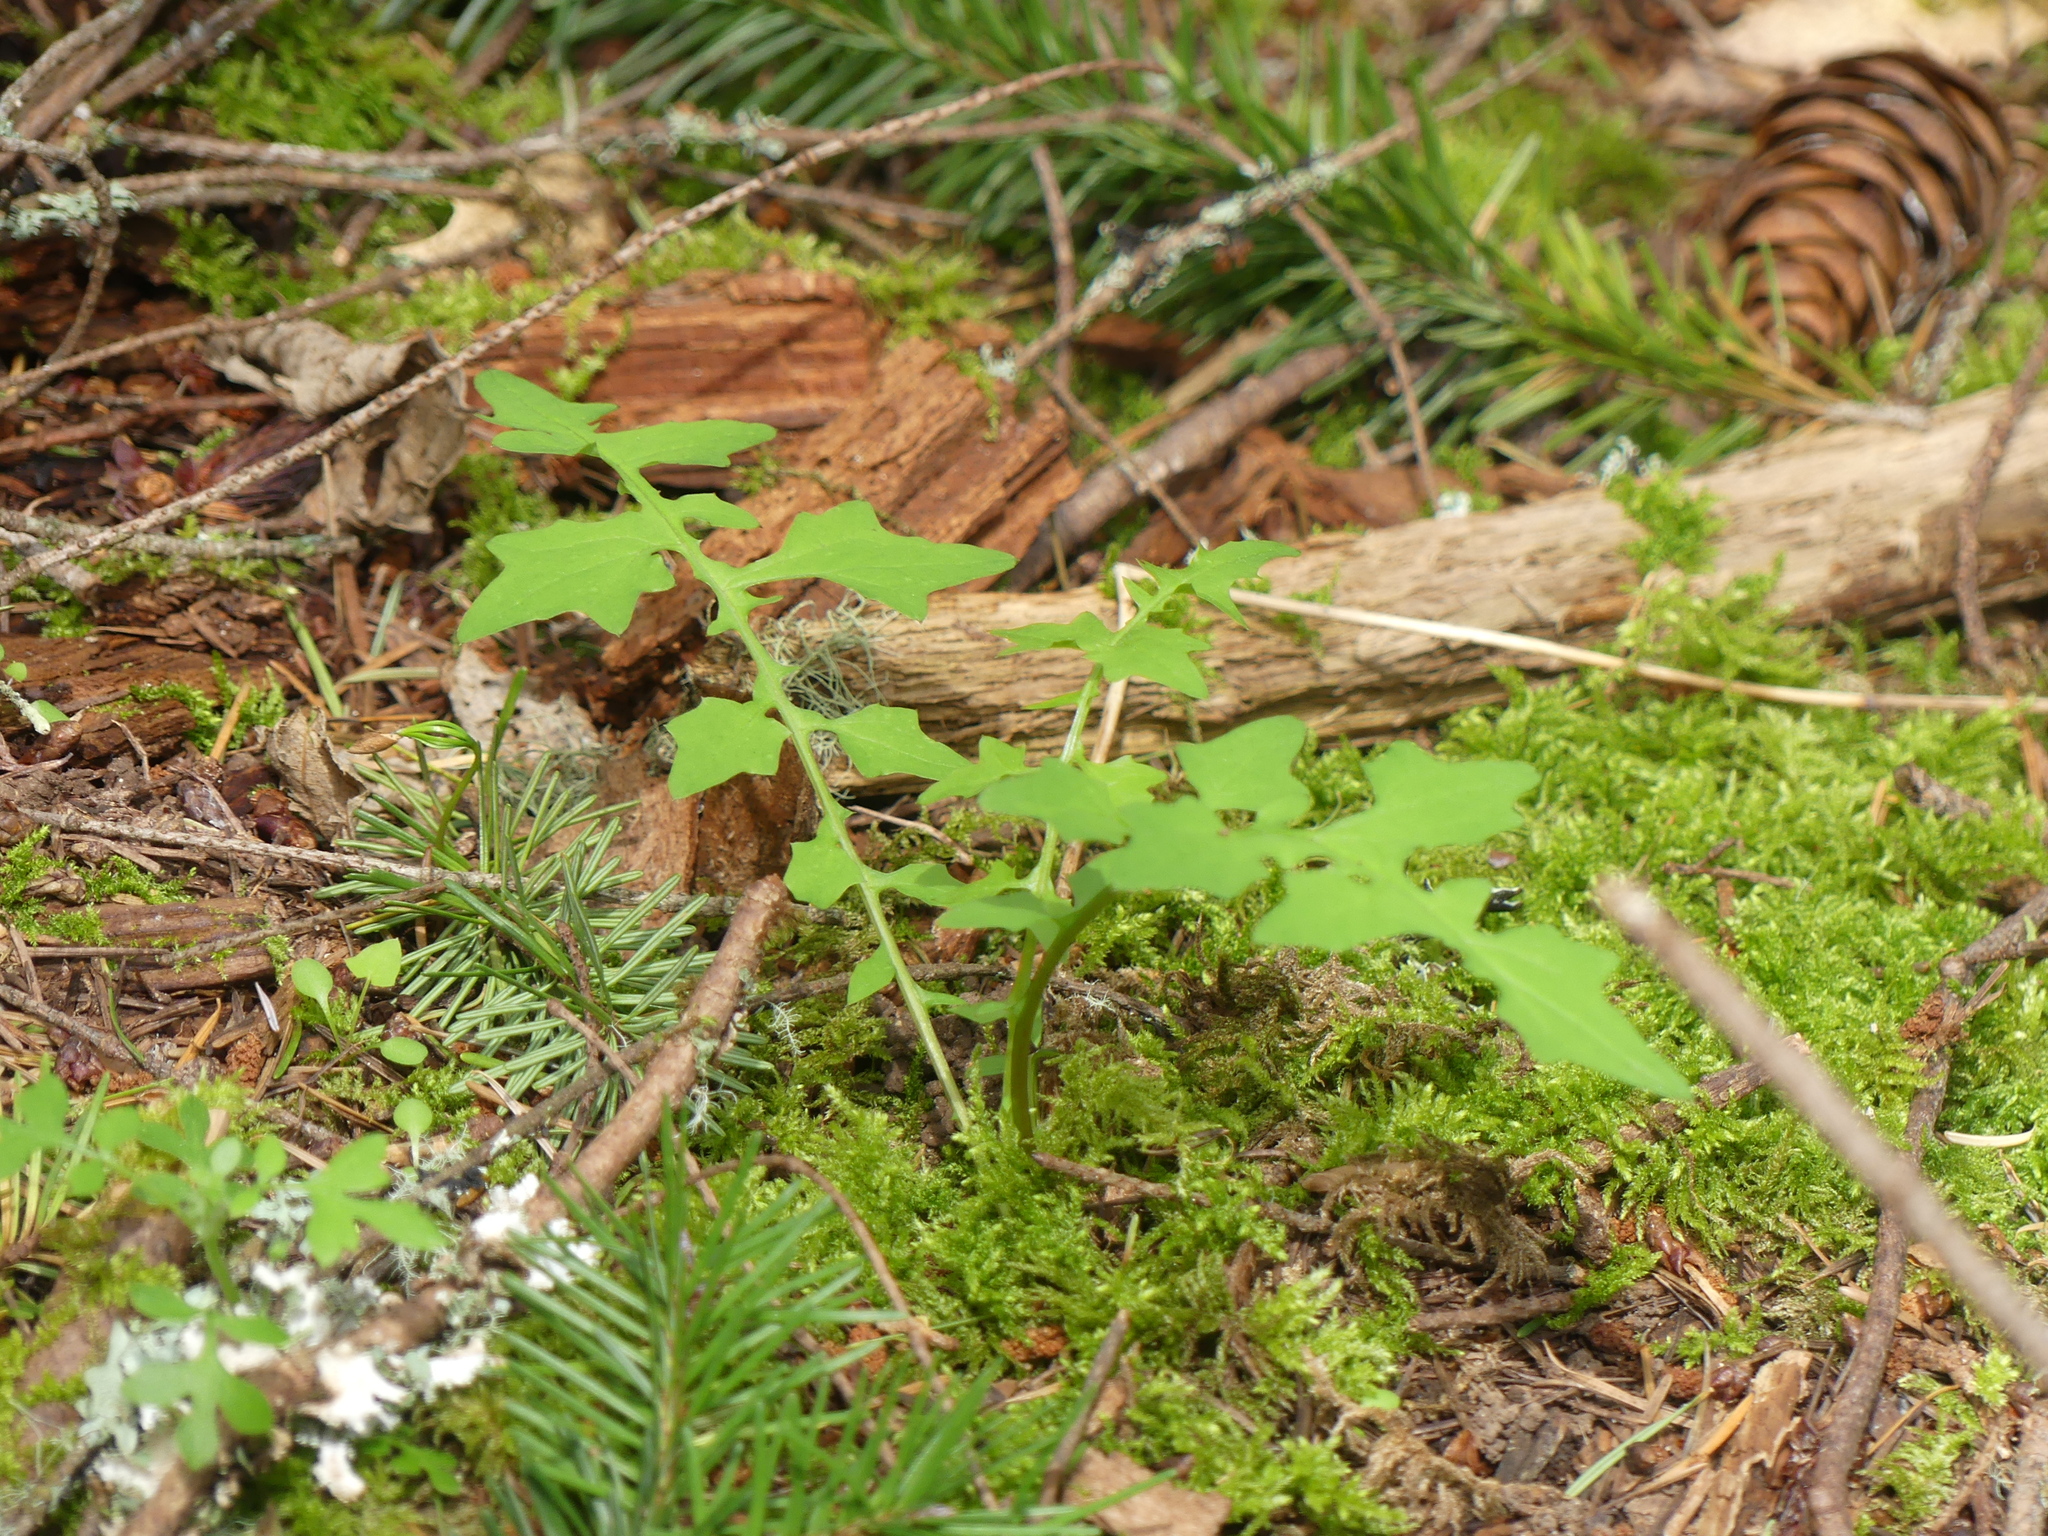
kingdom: Plantae
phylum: Tracheophyta
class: Magnoliopsida
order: Asterales
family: Asteraceae
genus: Mycelis
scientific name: Mycelis muralis
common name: Wall lettuce
